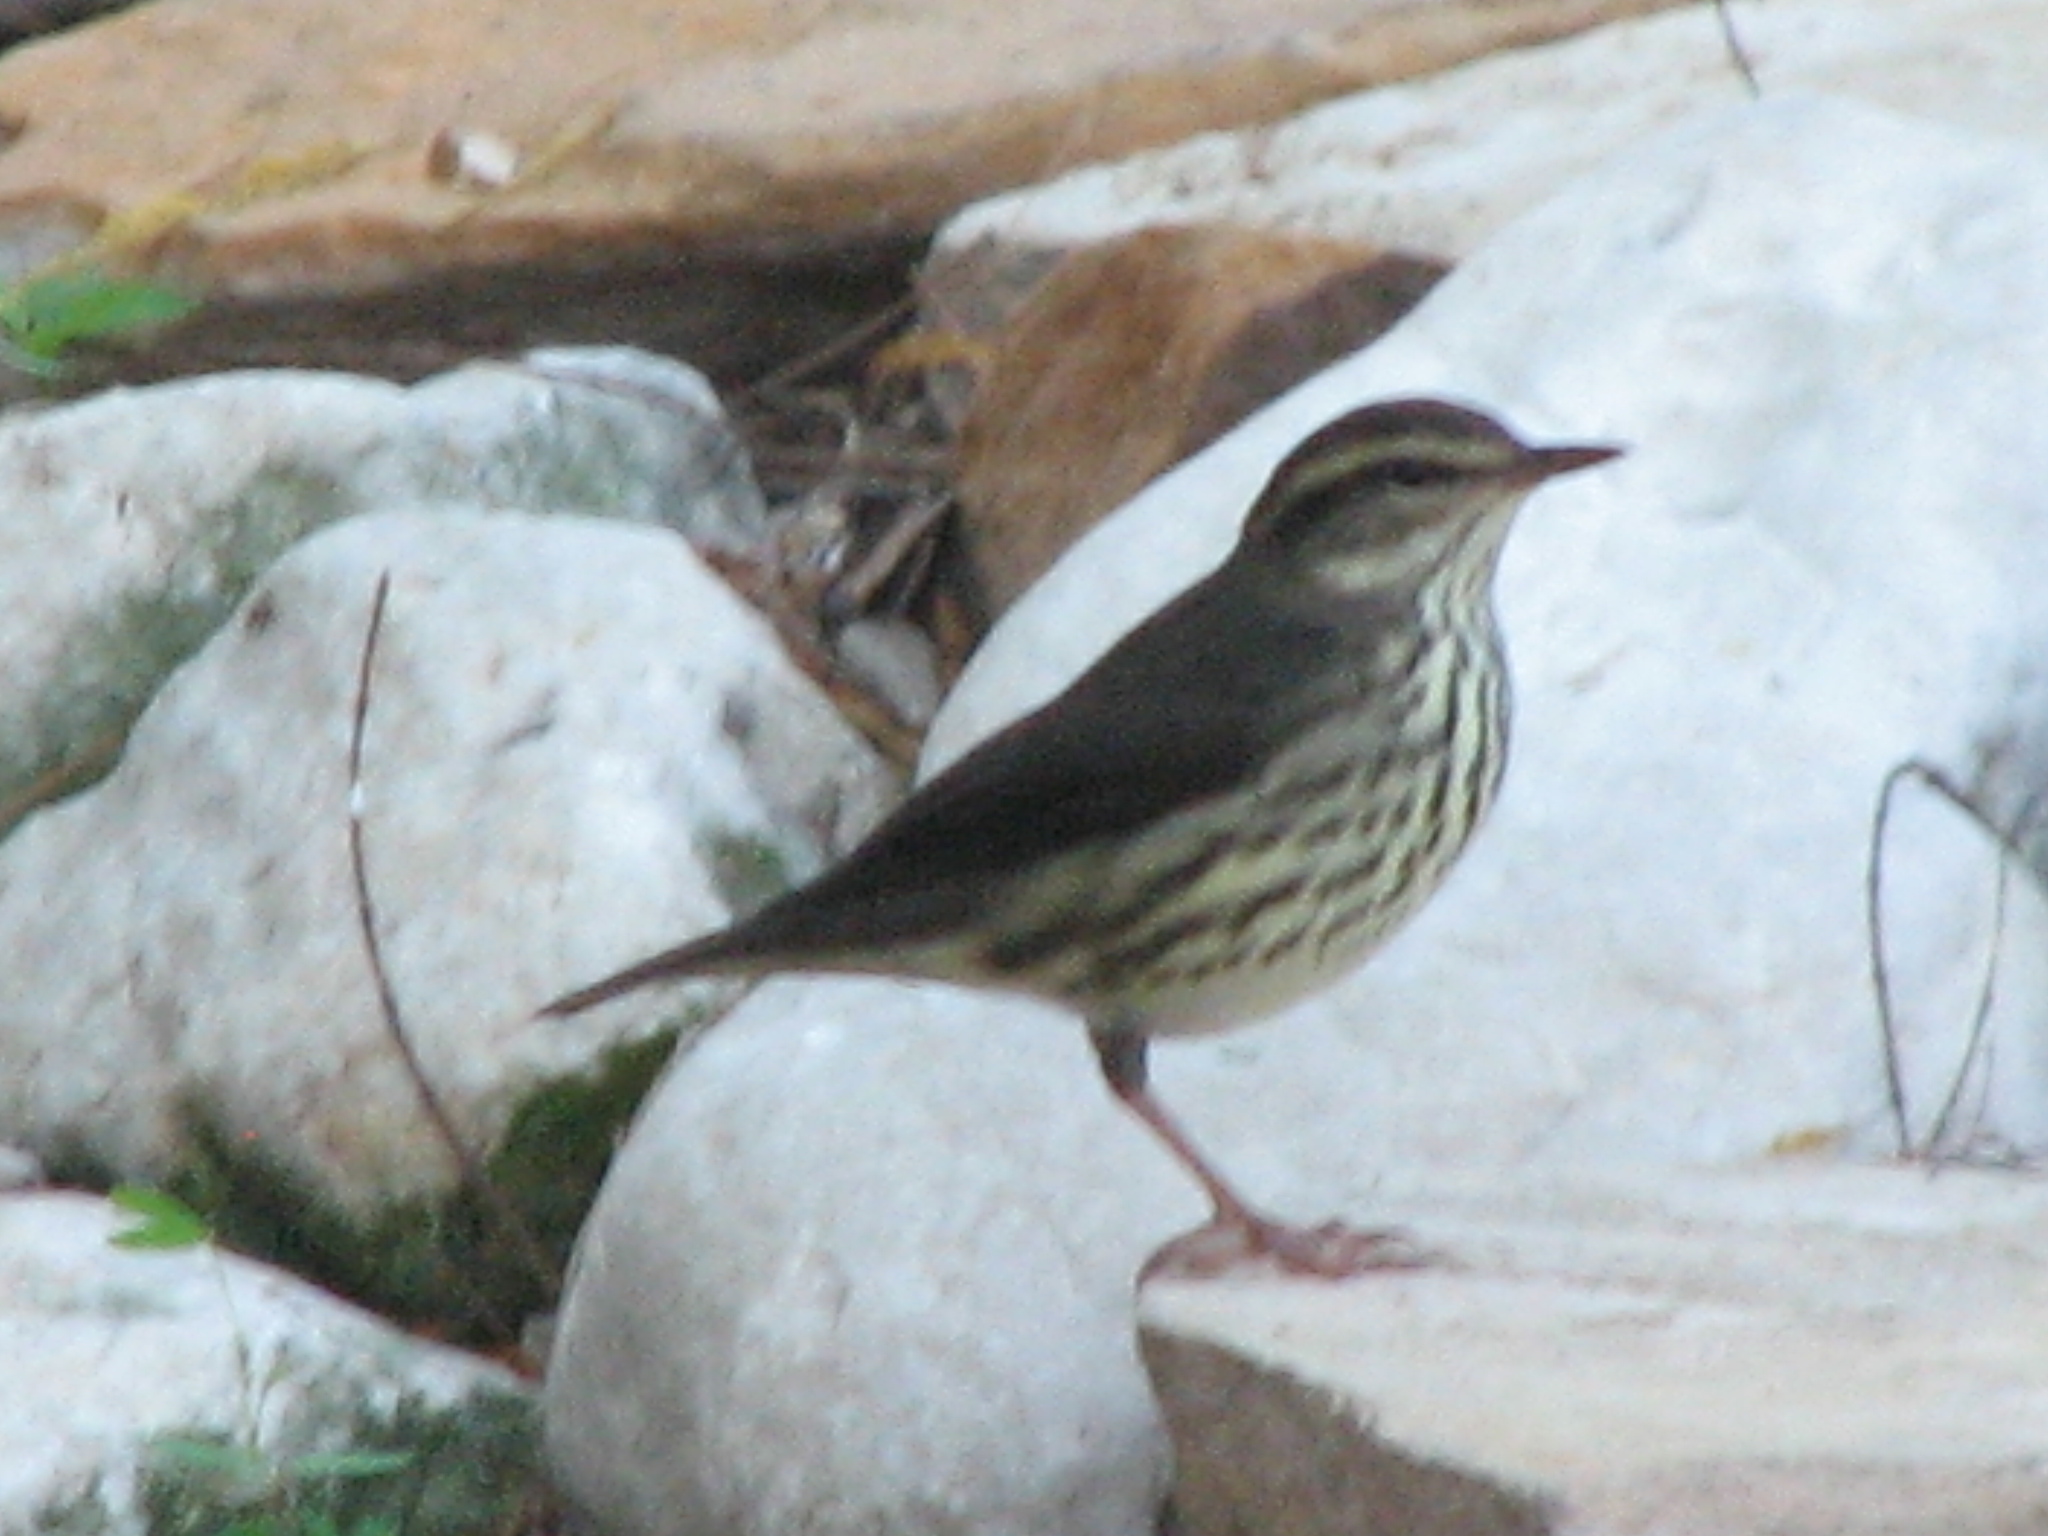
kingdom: Animalia
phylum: Chordata
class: Aves
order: Passeriformes
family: Parulidae
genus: Parkesia
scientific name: Parkesia noveboracensis
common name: Northern waterthrush
